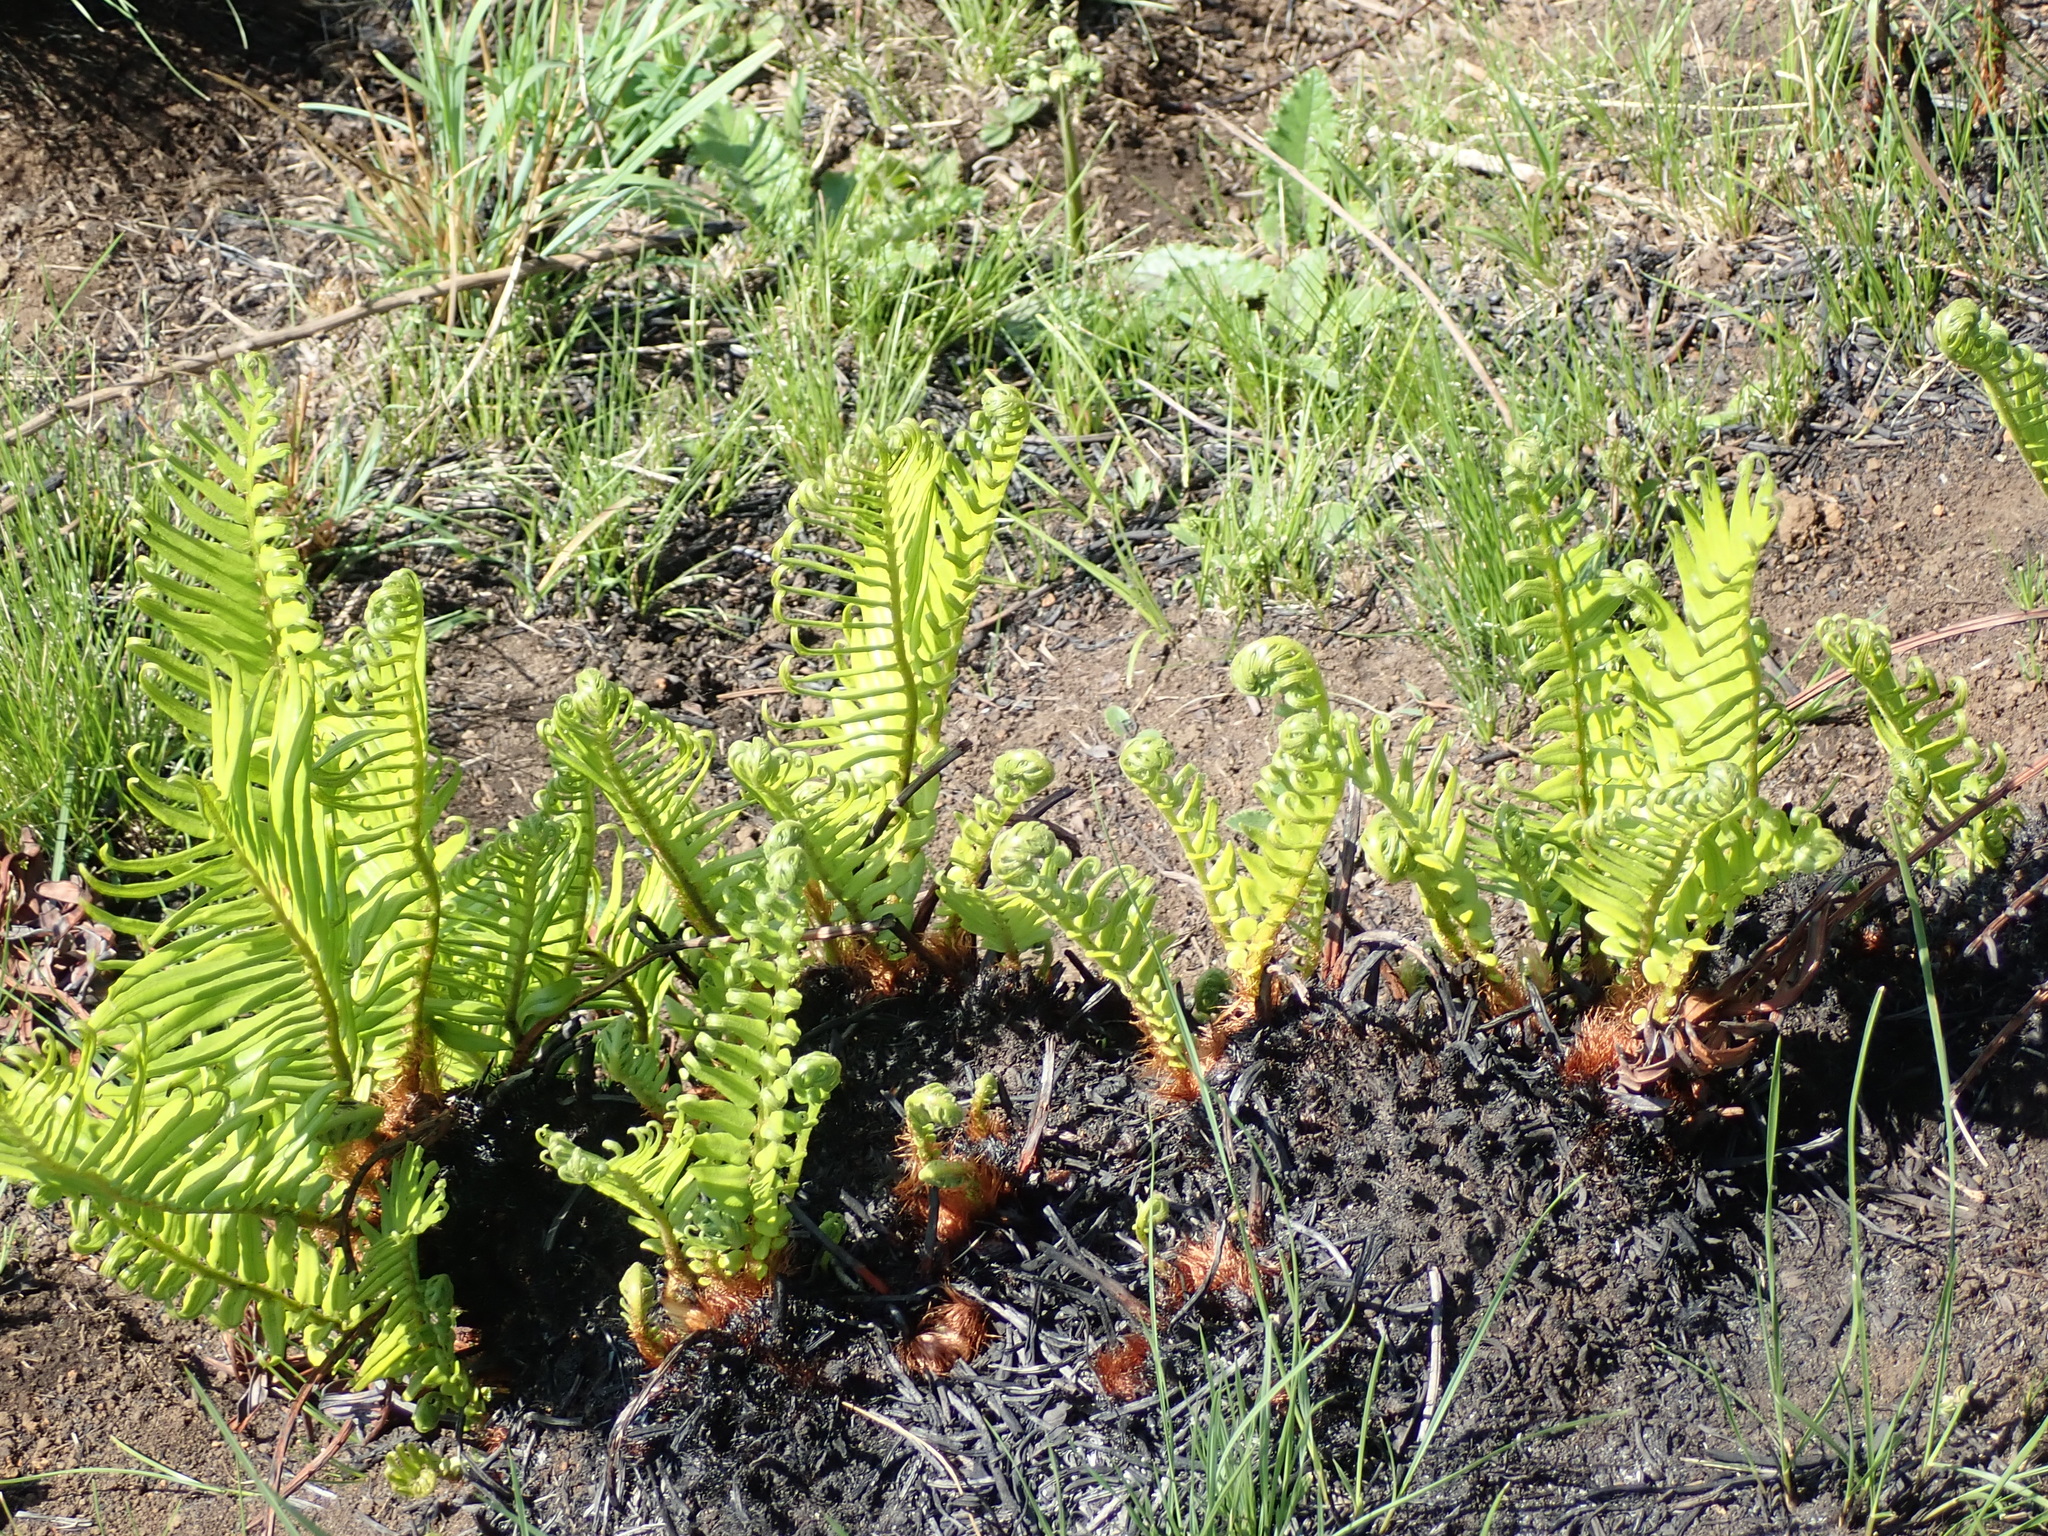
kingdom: Plantae
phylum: Tracheophyta
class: Polypodiopsida
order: Polypodiales
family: Blechnaceae
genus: Lomariocycas
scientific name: Lomariocycas tabularis
